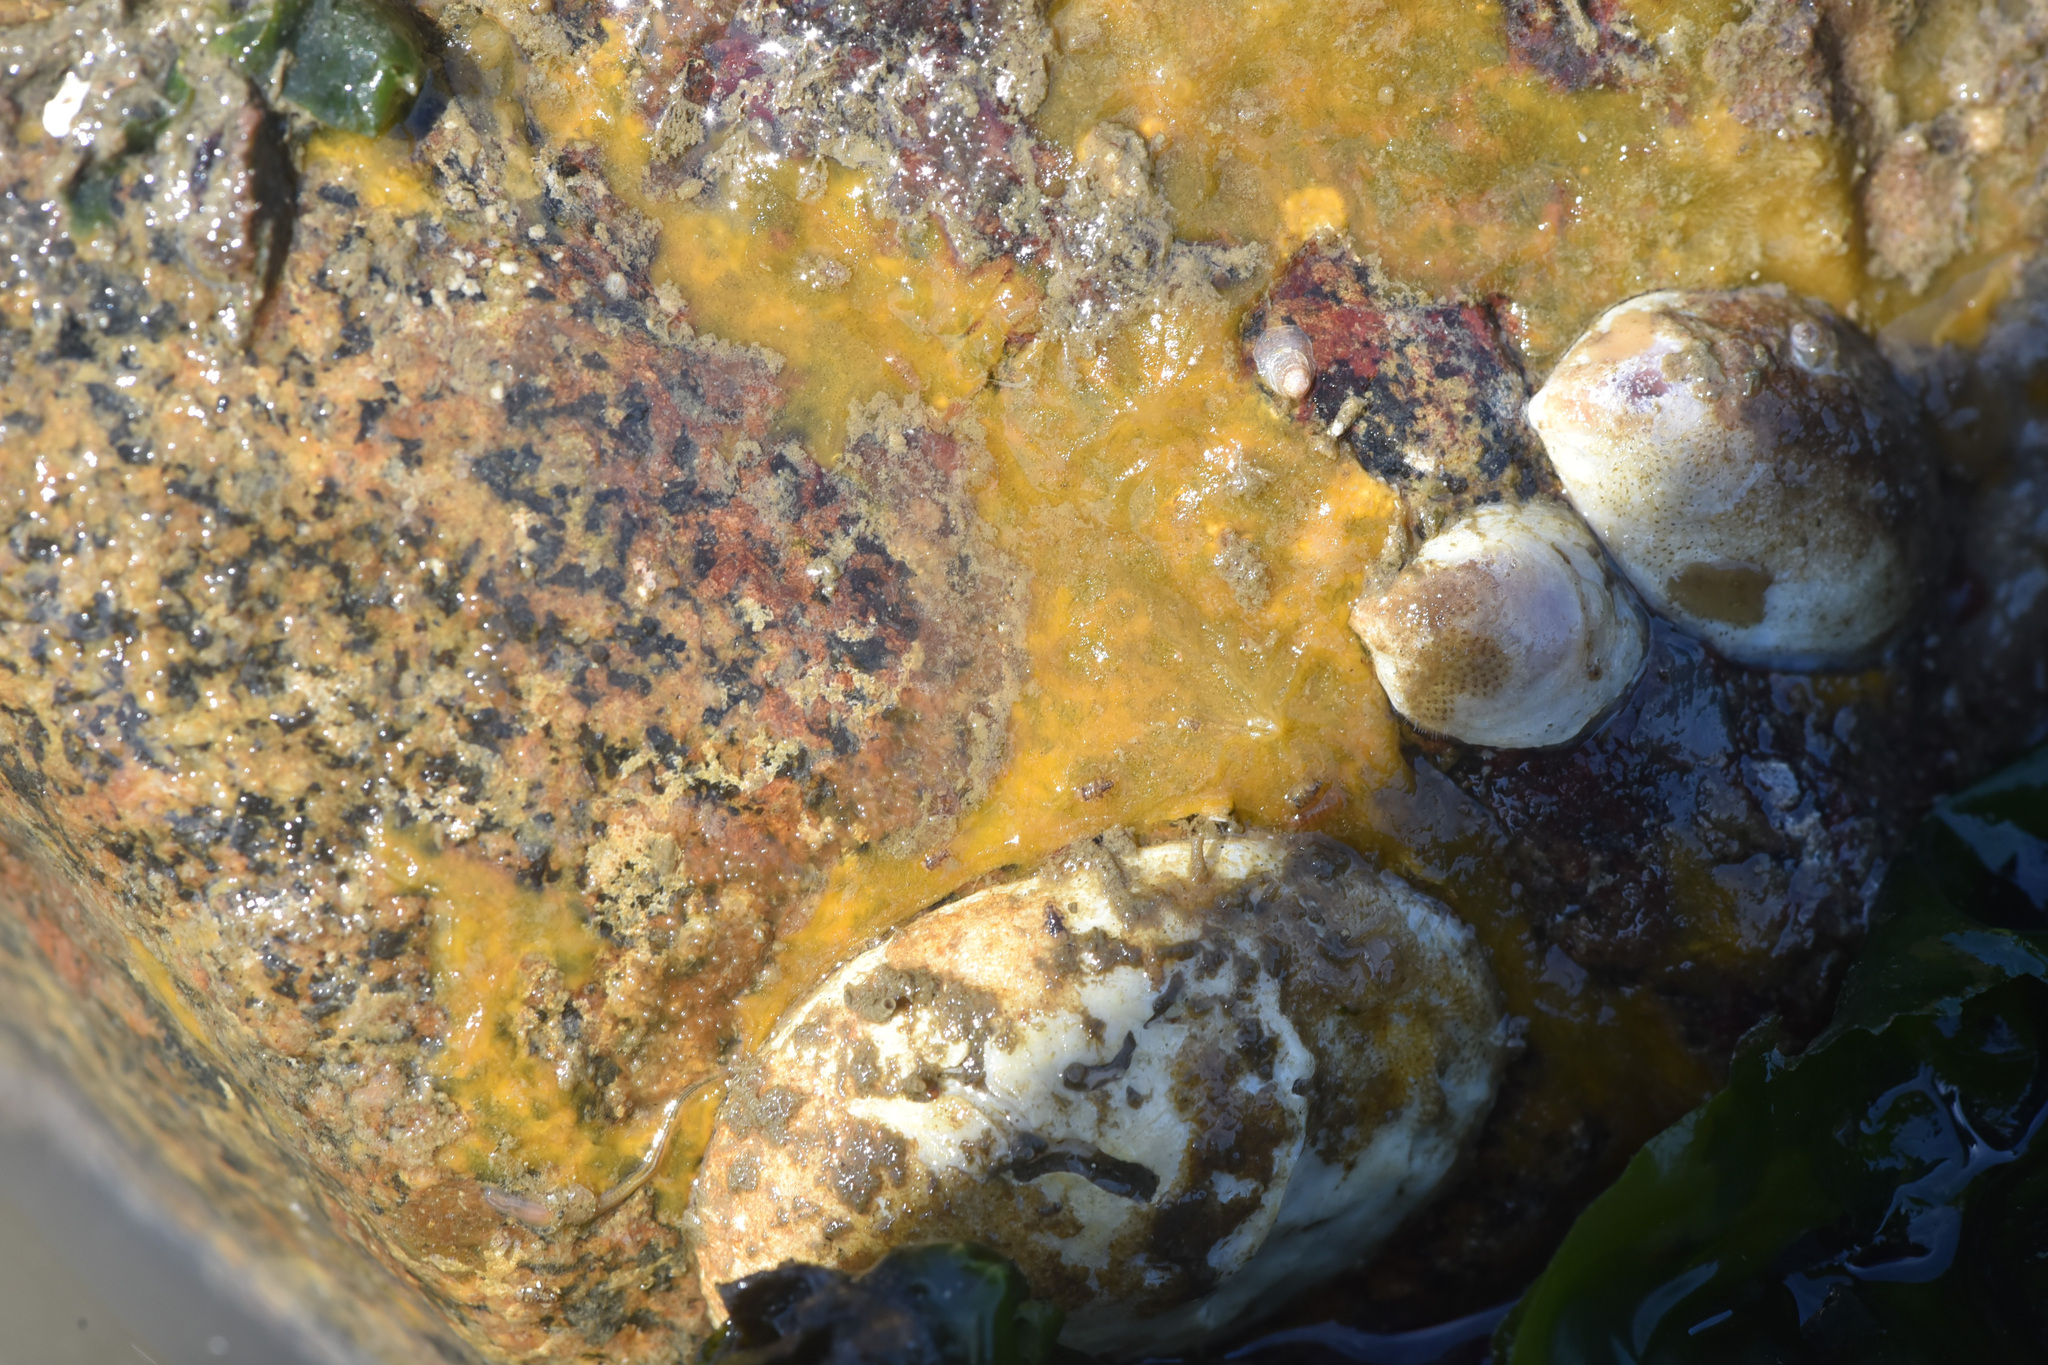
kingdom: Animalia
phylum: Mollusca
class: Bivalvia
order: Ostreida
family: Ostreidae
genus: Ostrea
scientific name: Ostrea lurida
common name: Olympia flat oyster
